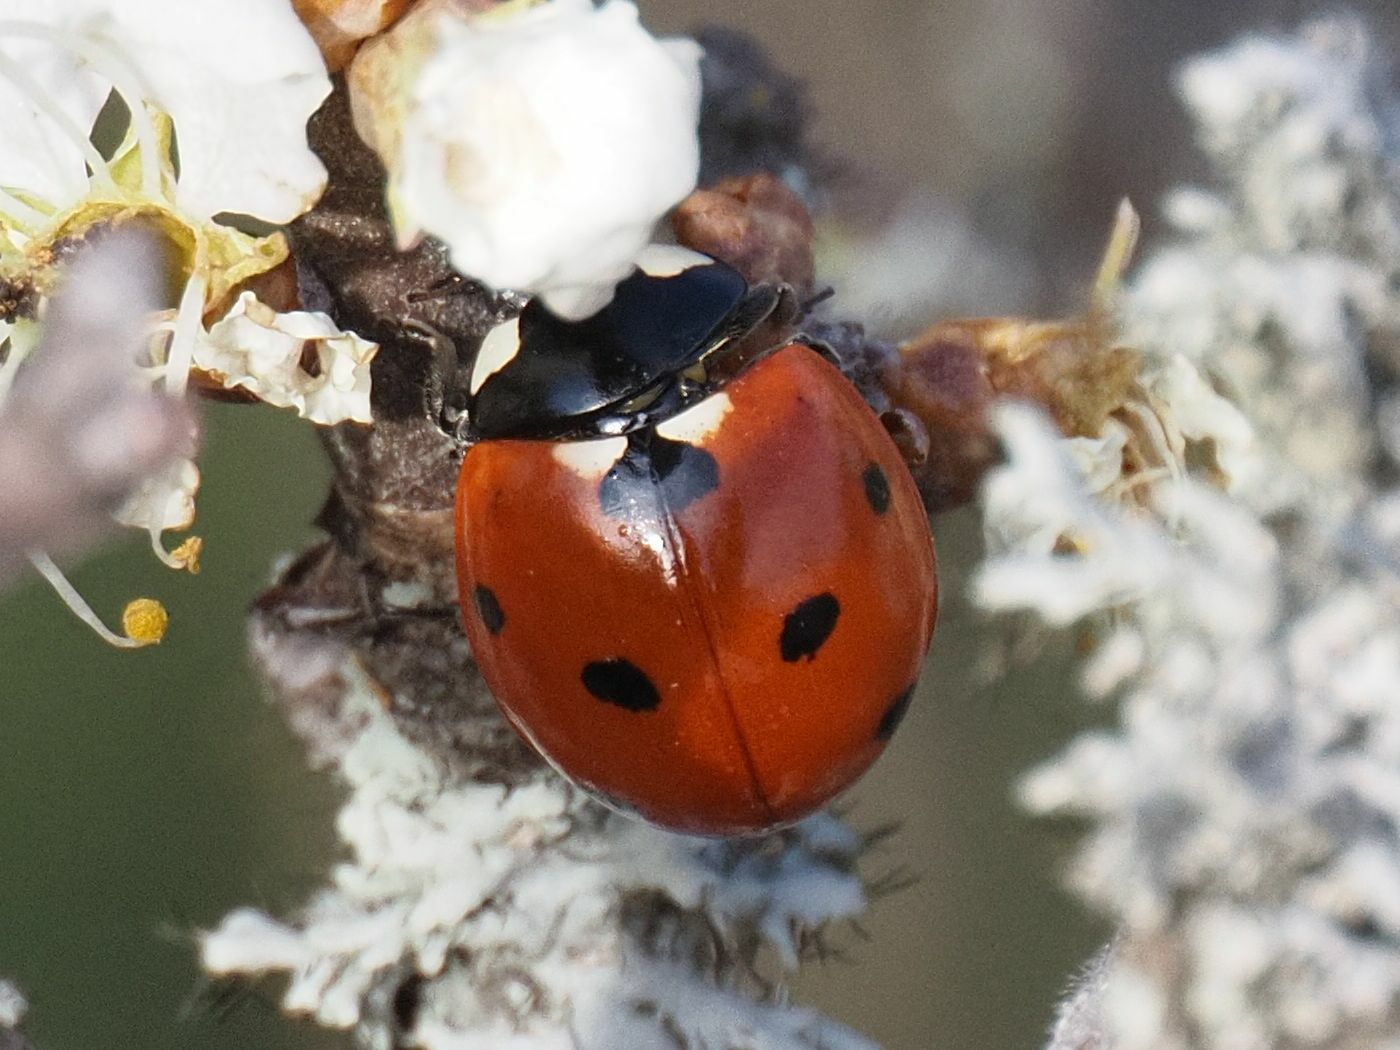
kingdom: Animalia
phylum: Arthropoda
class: Insecta
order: Coleoptera
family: Coccinellidae
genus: Coccinella
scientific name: Coccinella septempunctata
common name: Sevenspotted lady beetle
